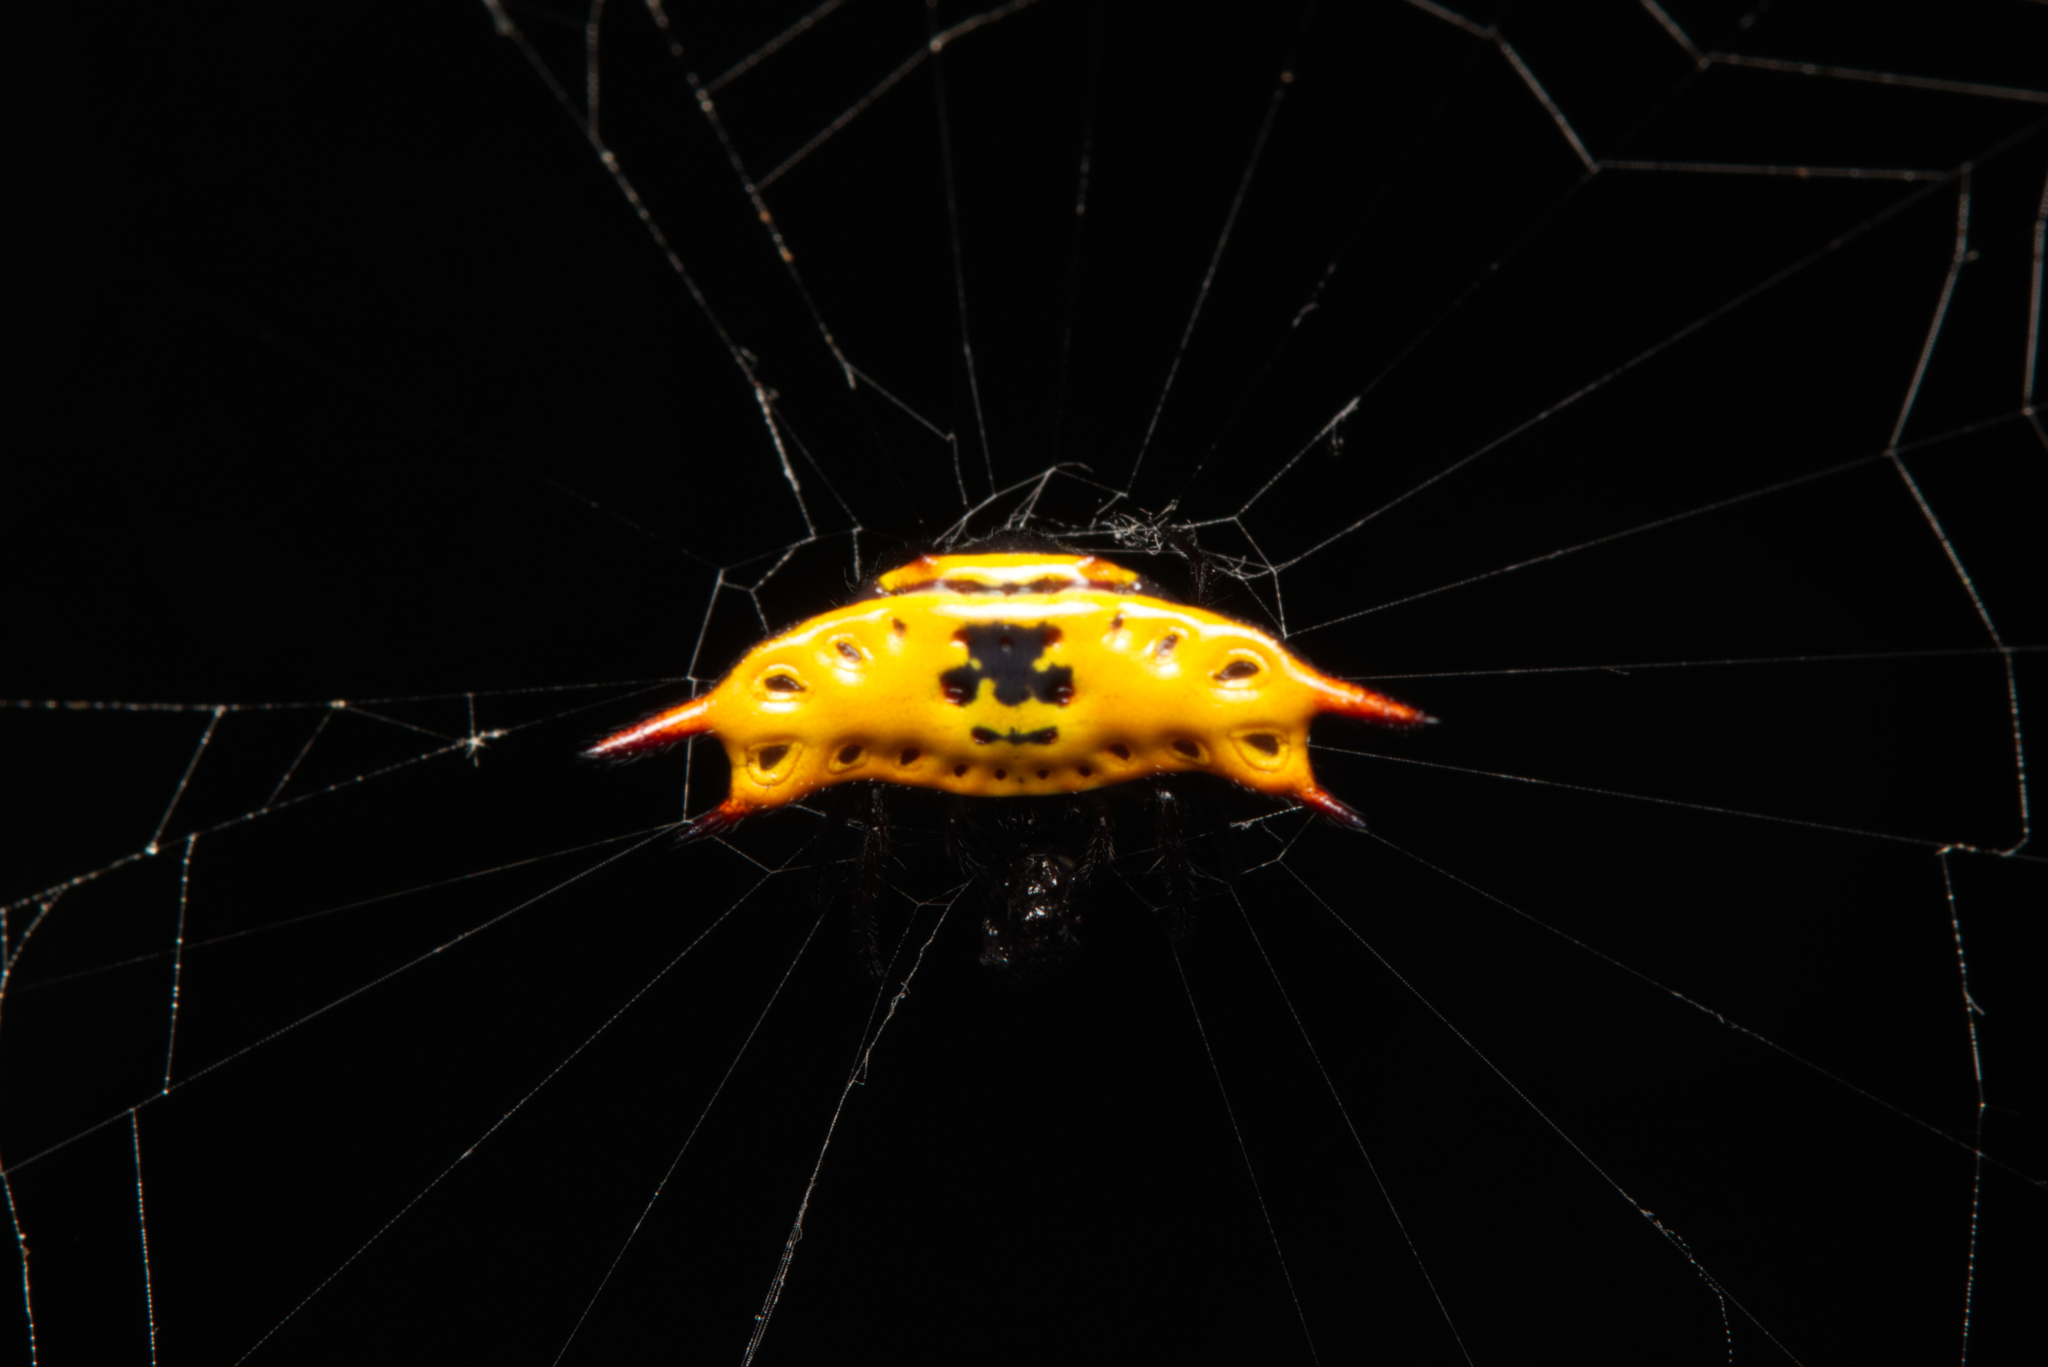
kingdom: Animalia
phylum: Arthropoda
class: Arachnida
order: Araneae
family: Araneidae
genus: Gasteracantha
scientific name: Gasteracantha quadrispinosa
